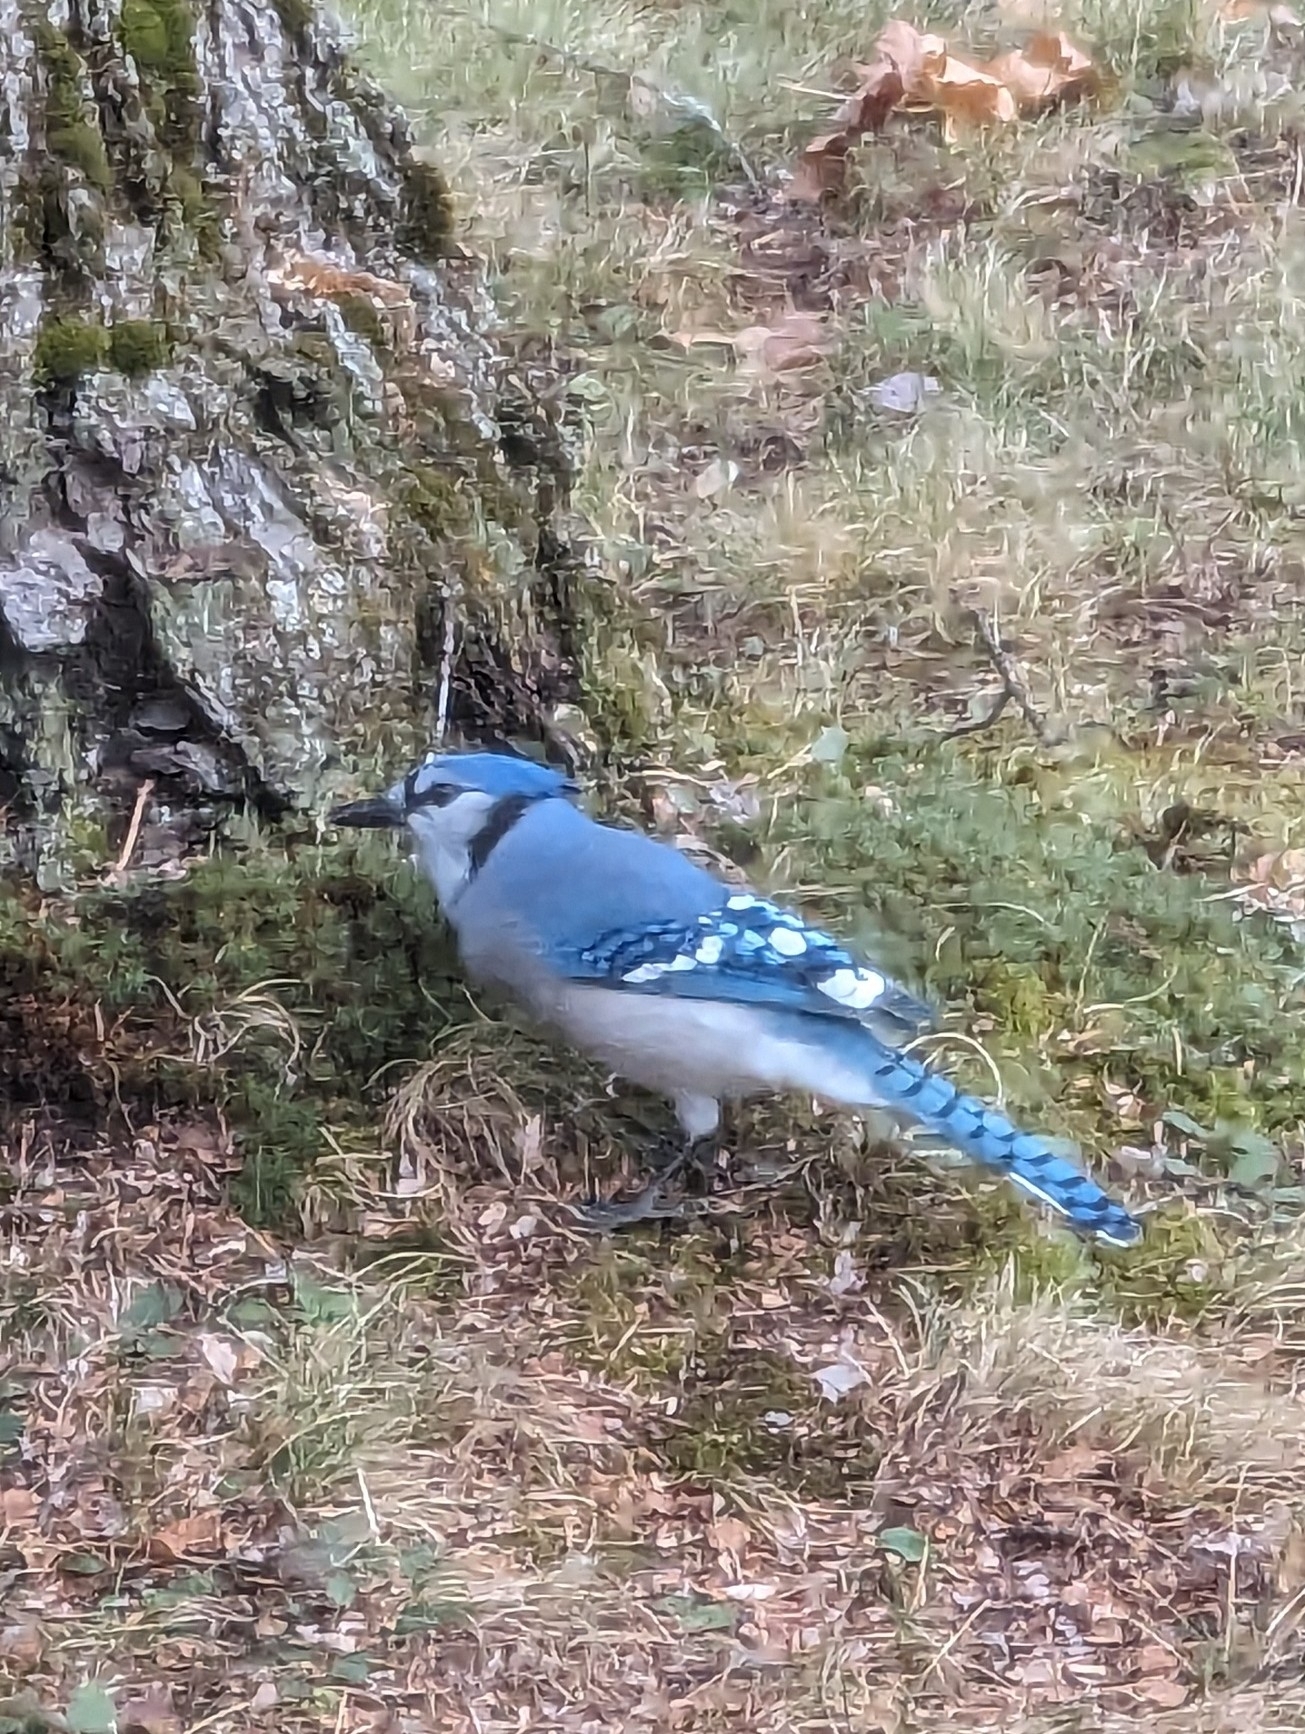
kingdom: Animalia
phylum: Chordata
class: Aves
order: Passeriformes
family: Corvidae
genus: Cyanocitta
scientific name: Cyanocitta cristata
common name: Blue jay
